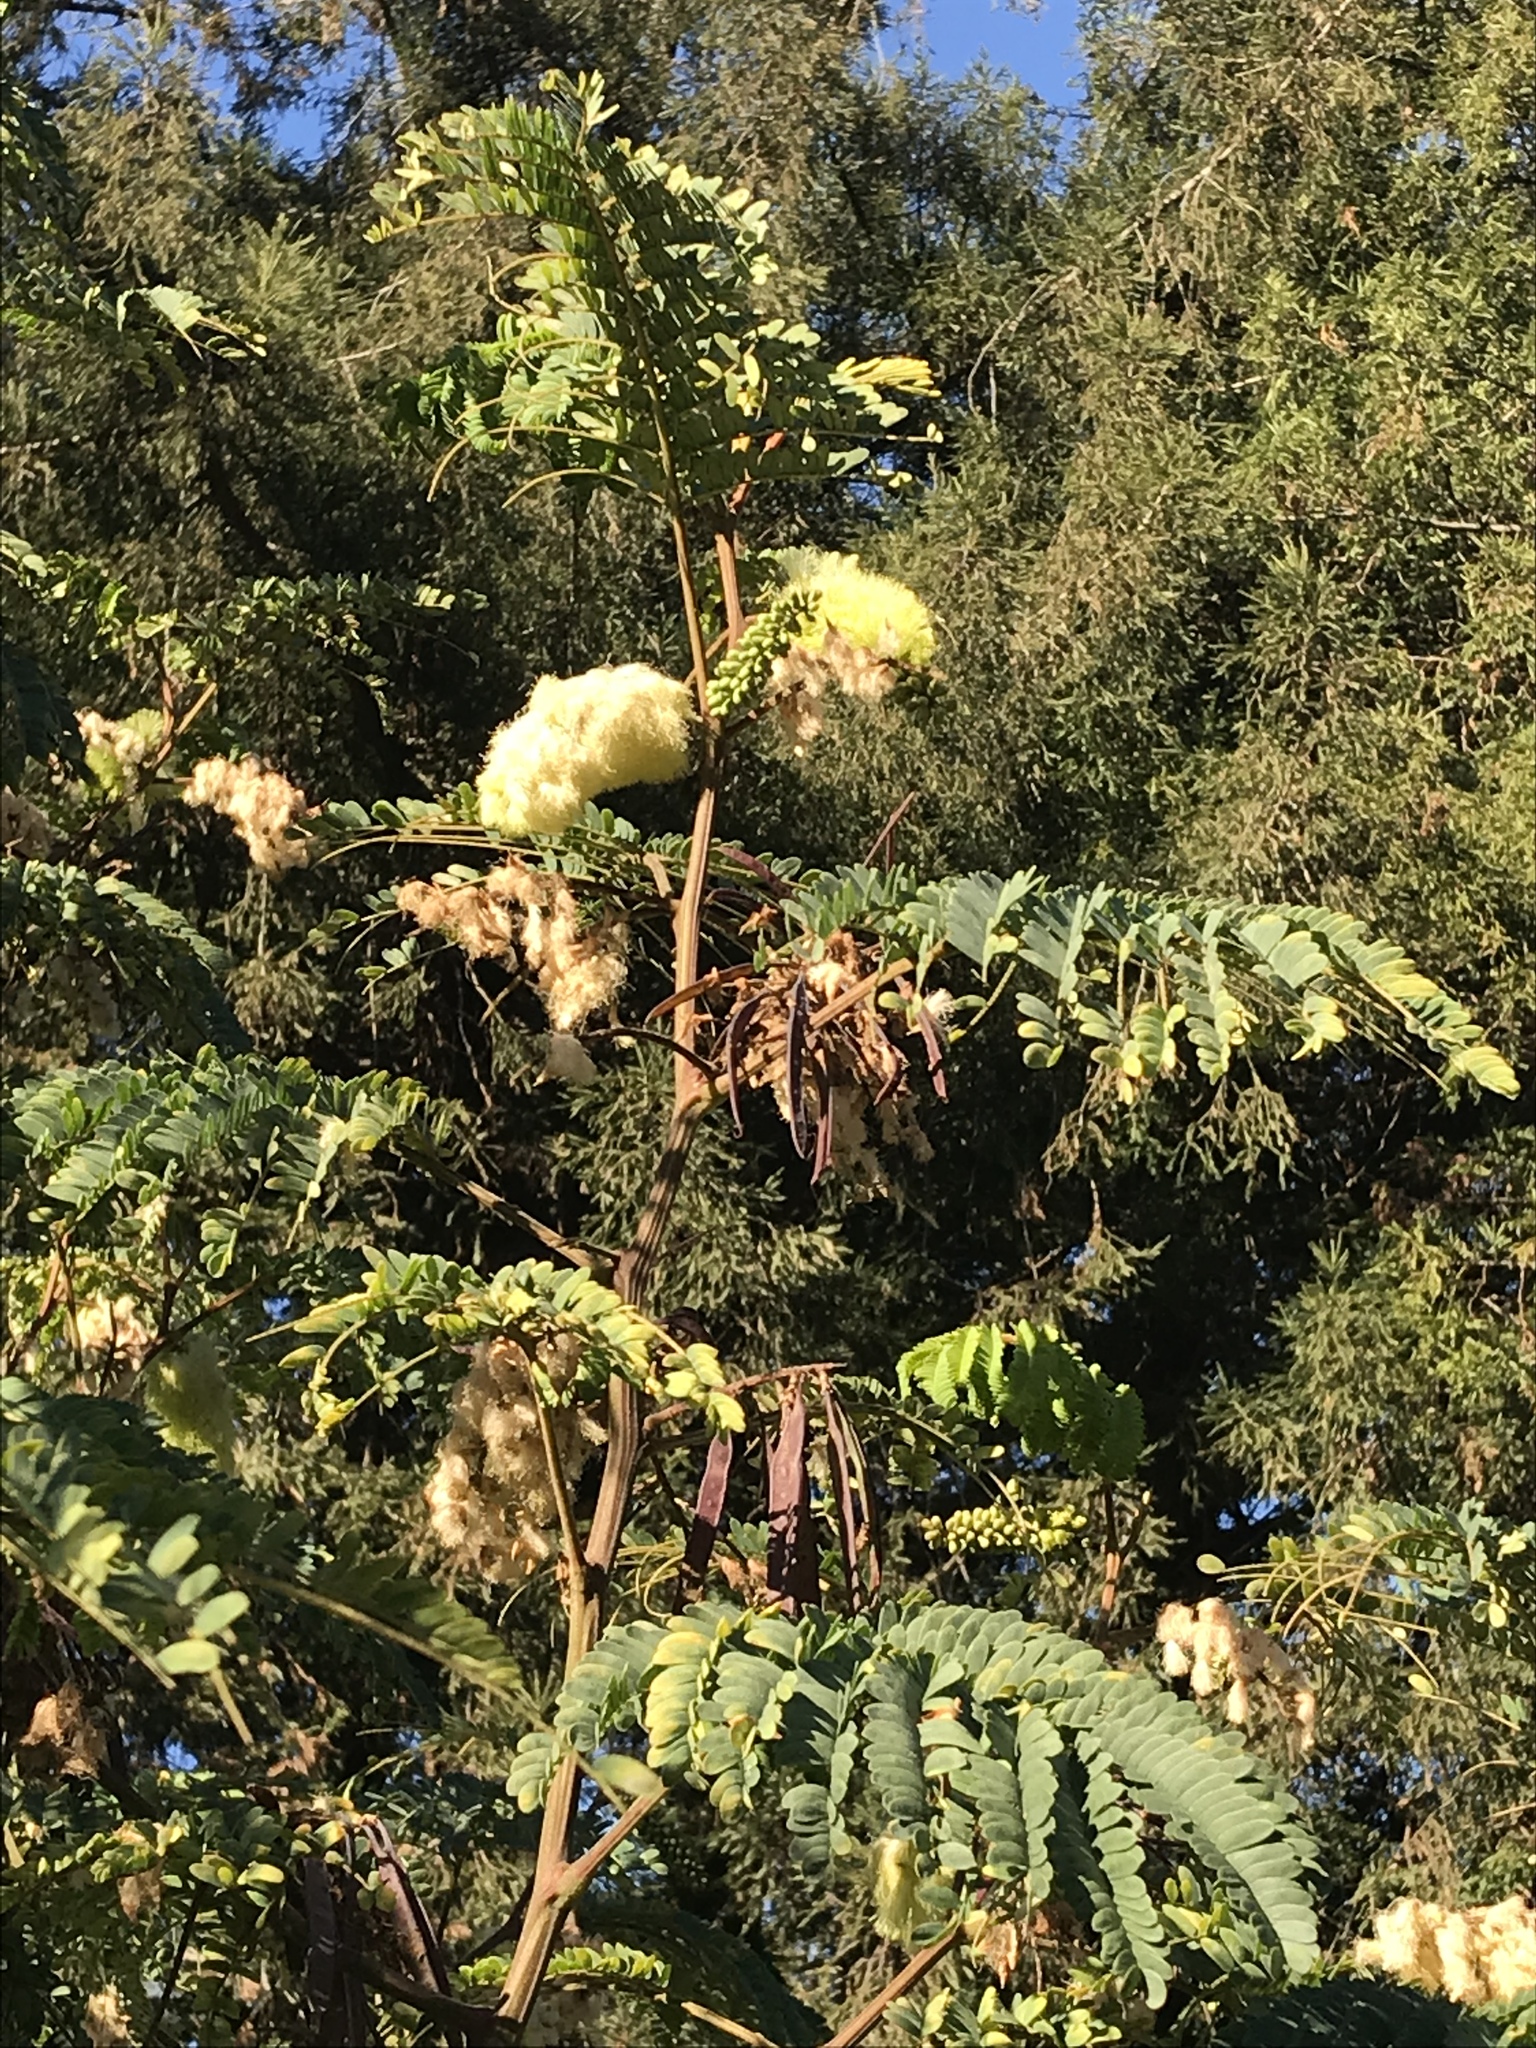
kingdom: Plantae
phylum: Tracheophyta
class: Magnoliopsida
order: Fabales
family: Fabaceae
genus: Paraserianthes
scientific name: Paraserianthes lophantha
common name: Plume albizia
